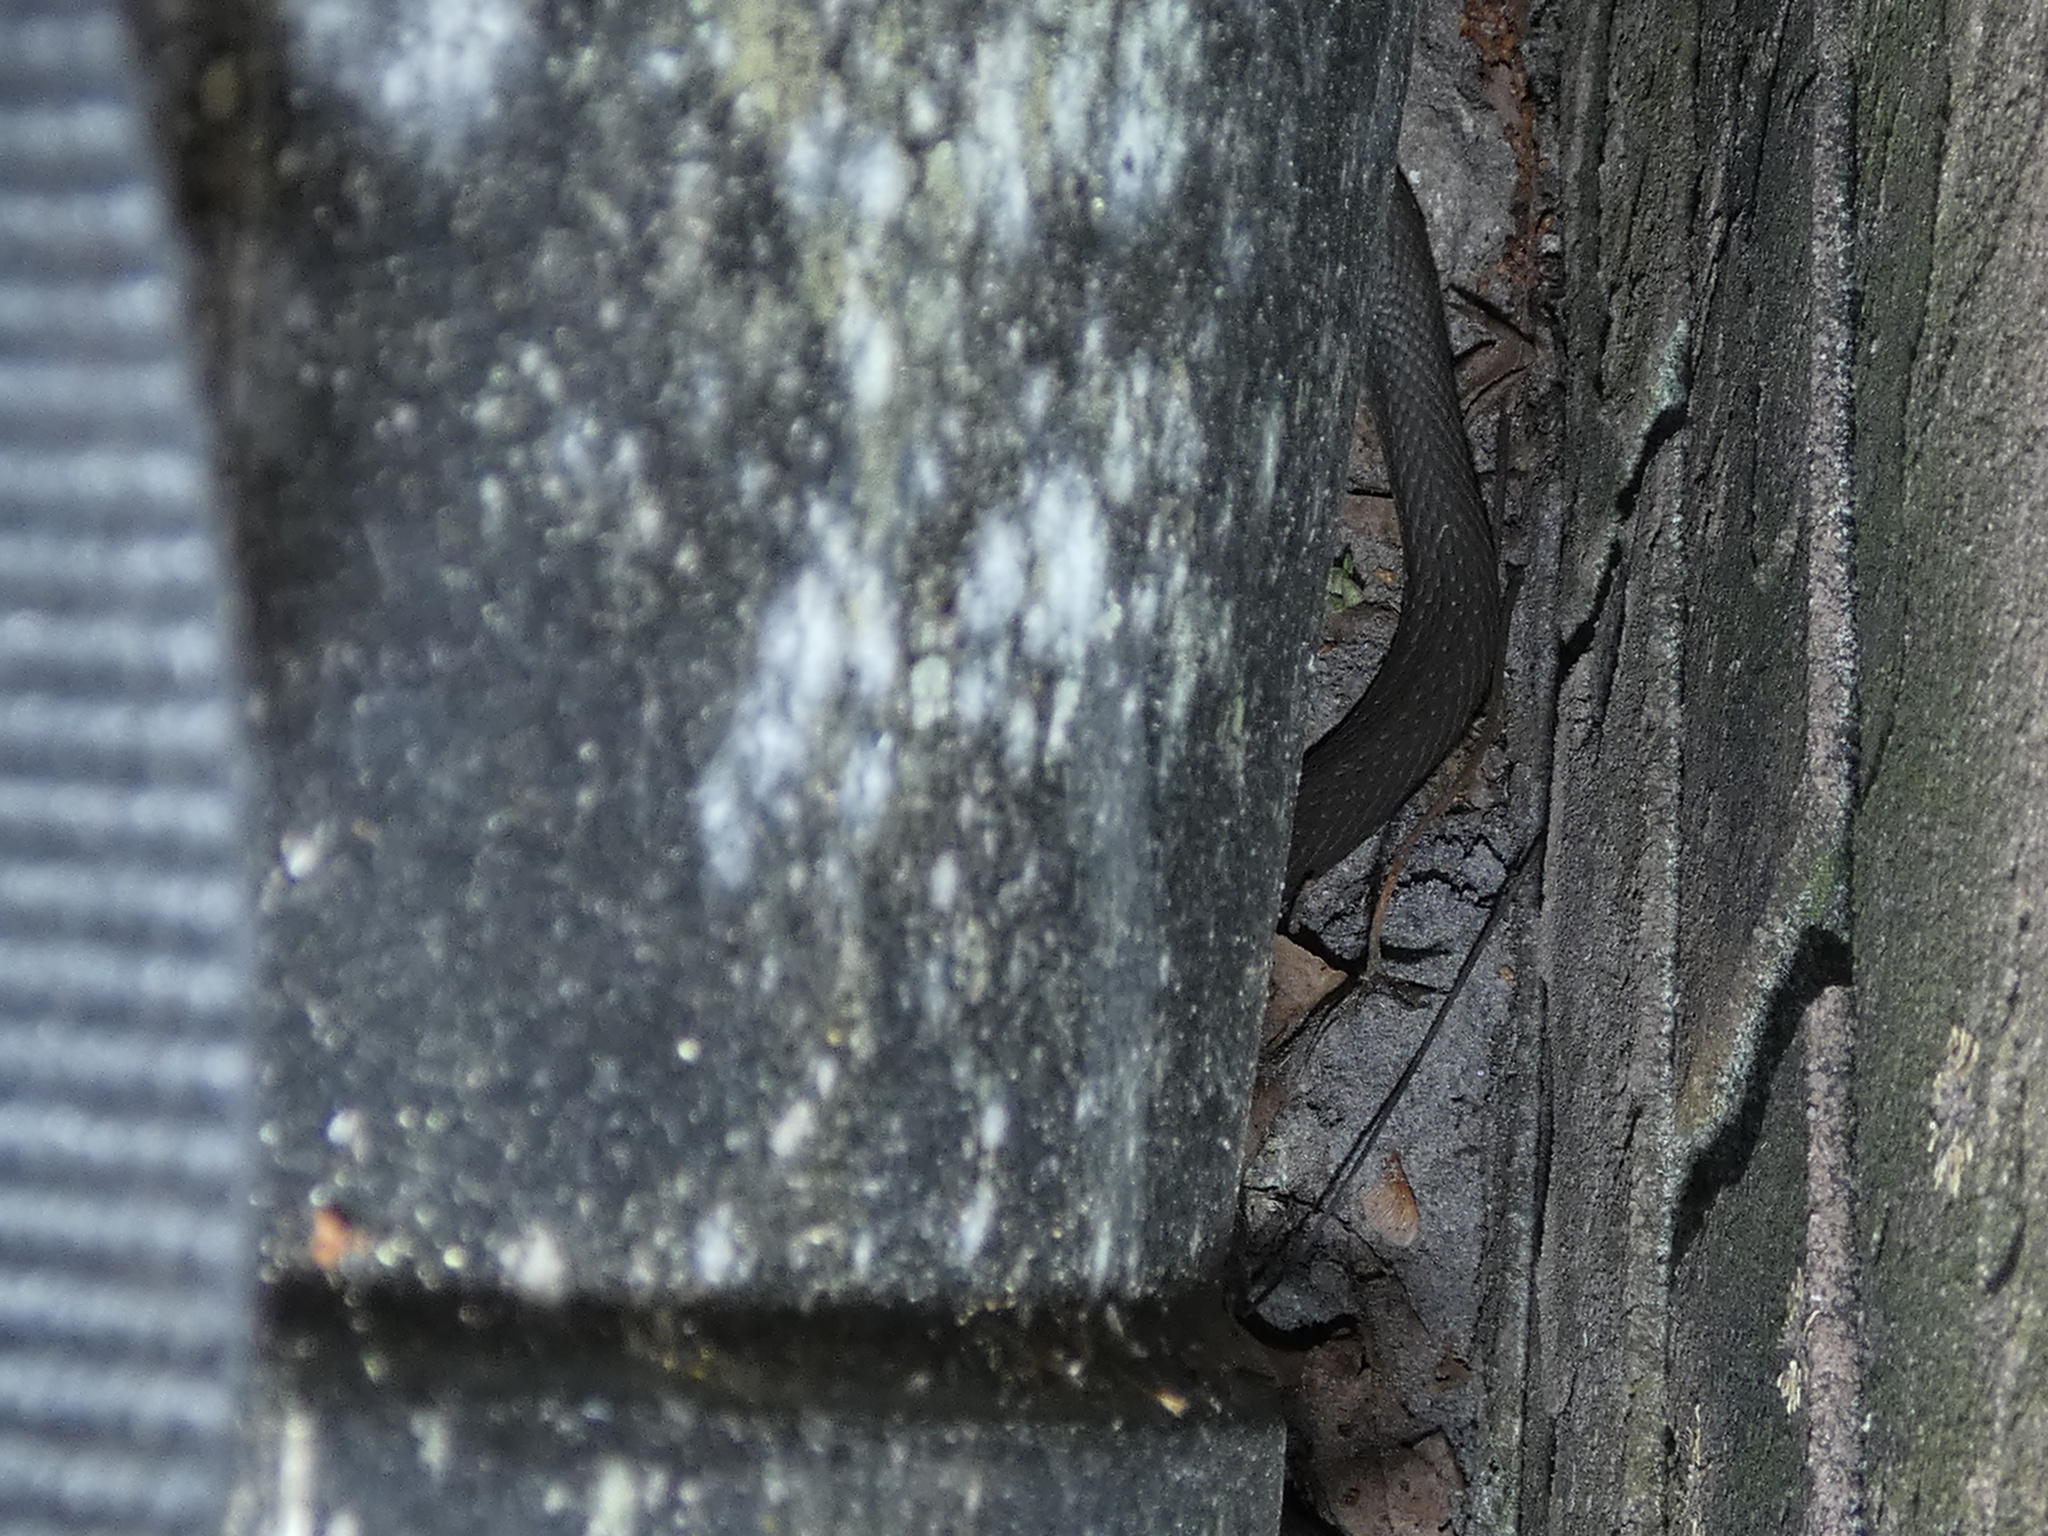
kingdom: Animalia
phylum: Chordata
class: Squamata
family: Colubridae
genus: Coluber
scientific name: Coluber constrictor
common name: Eastern racer
